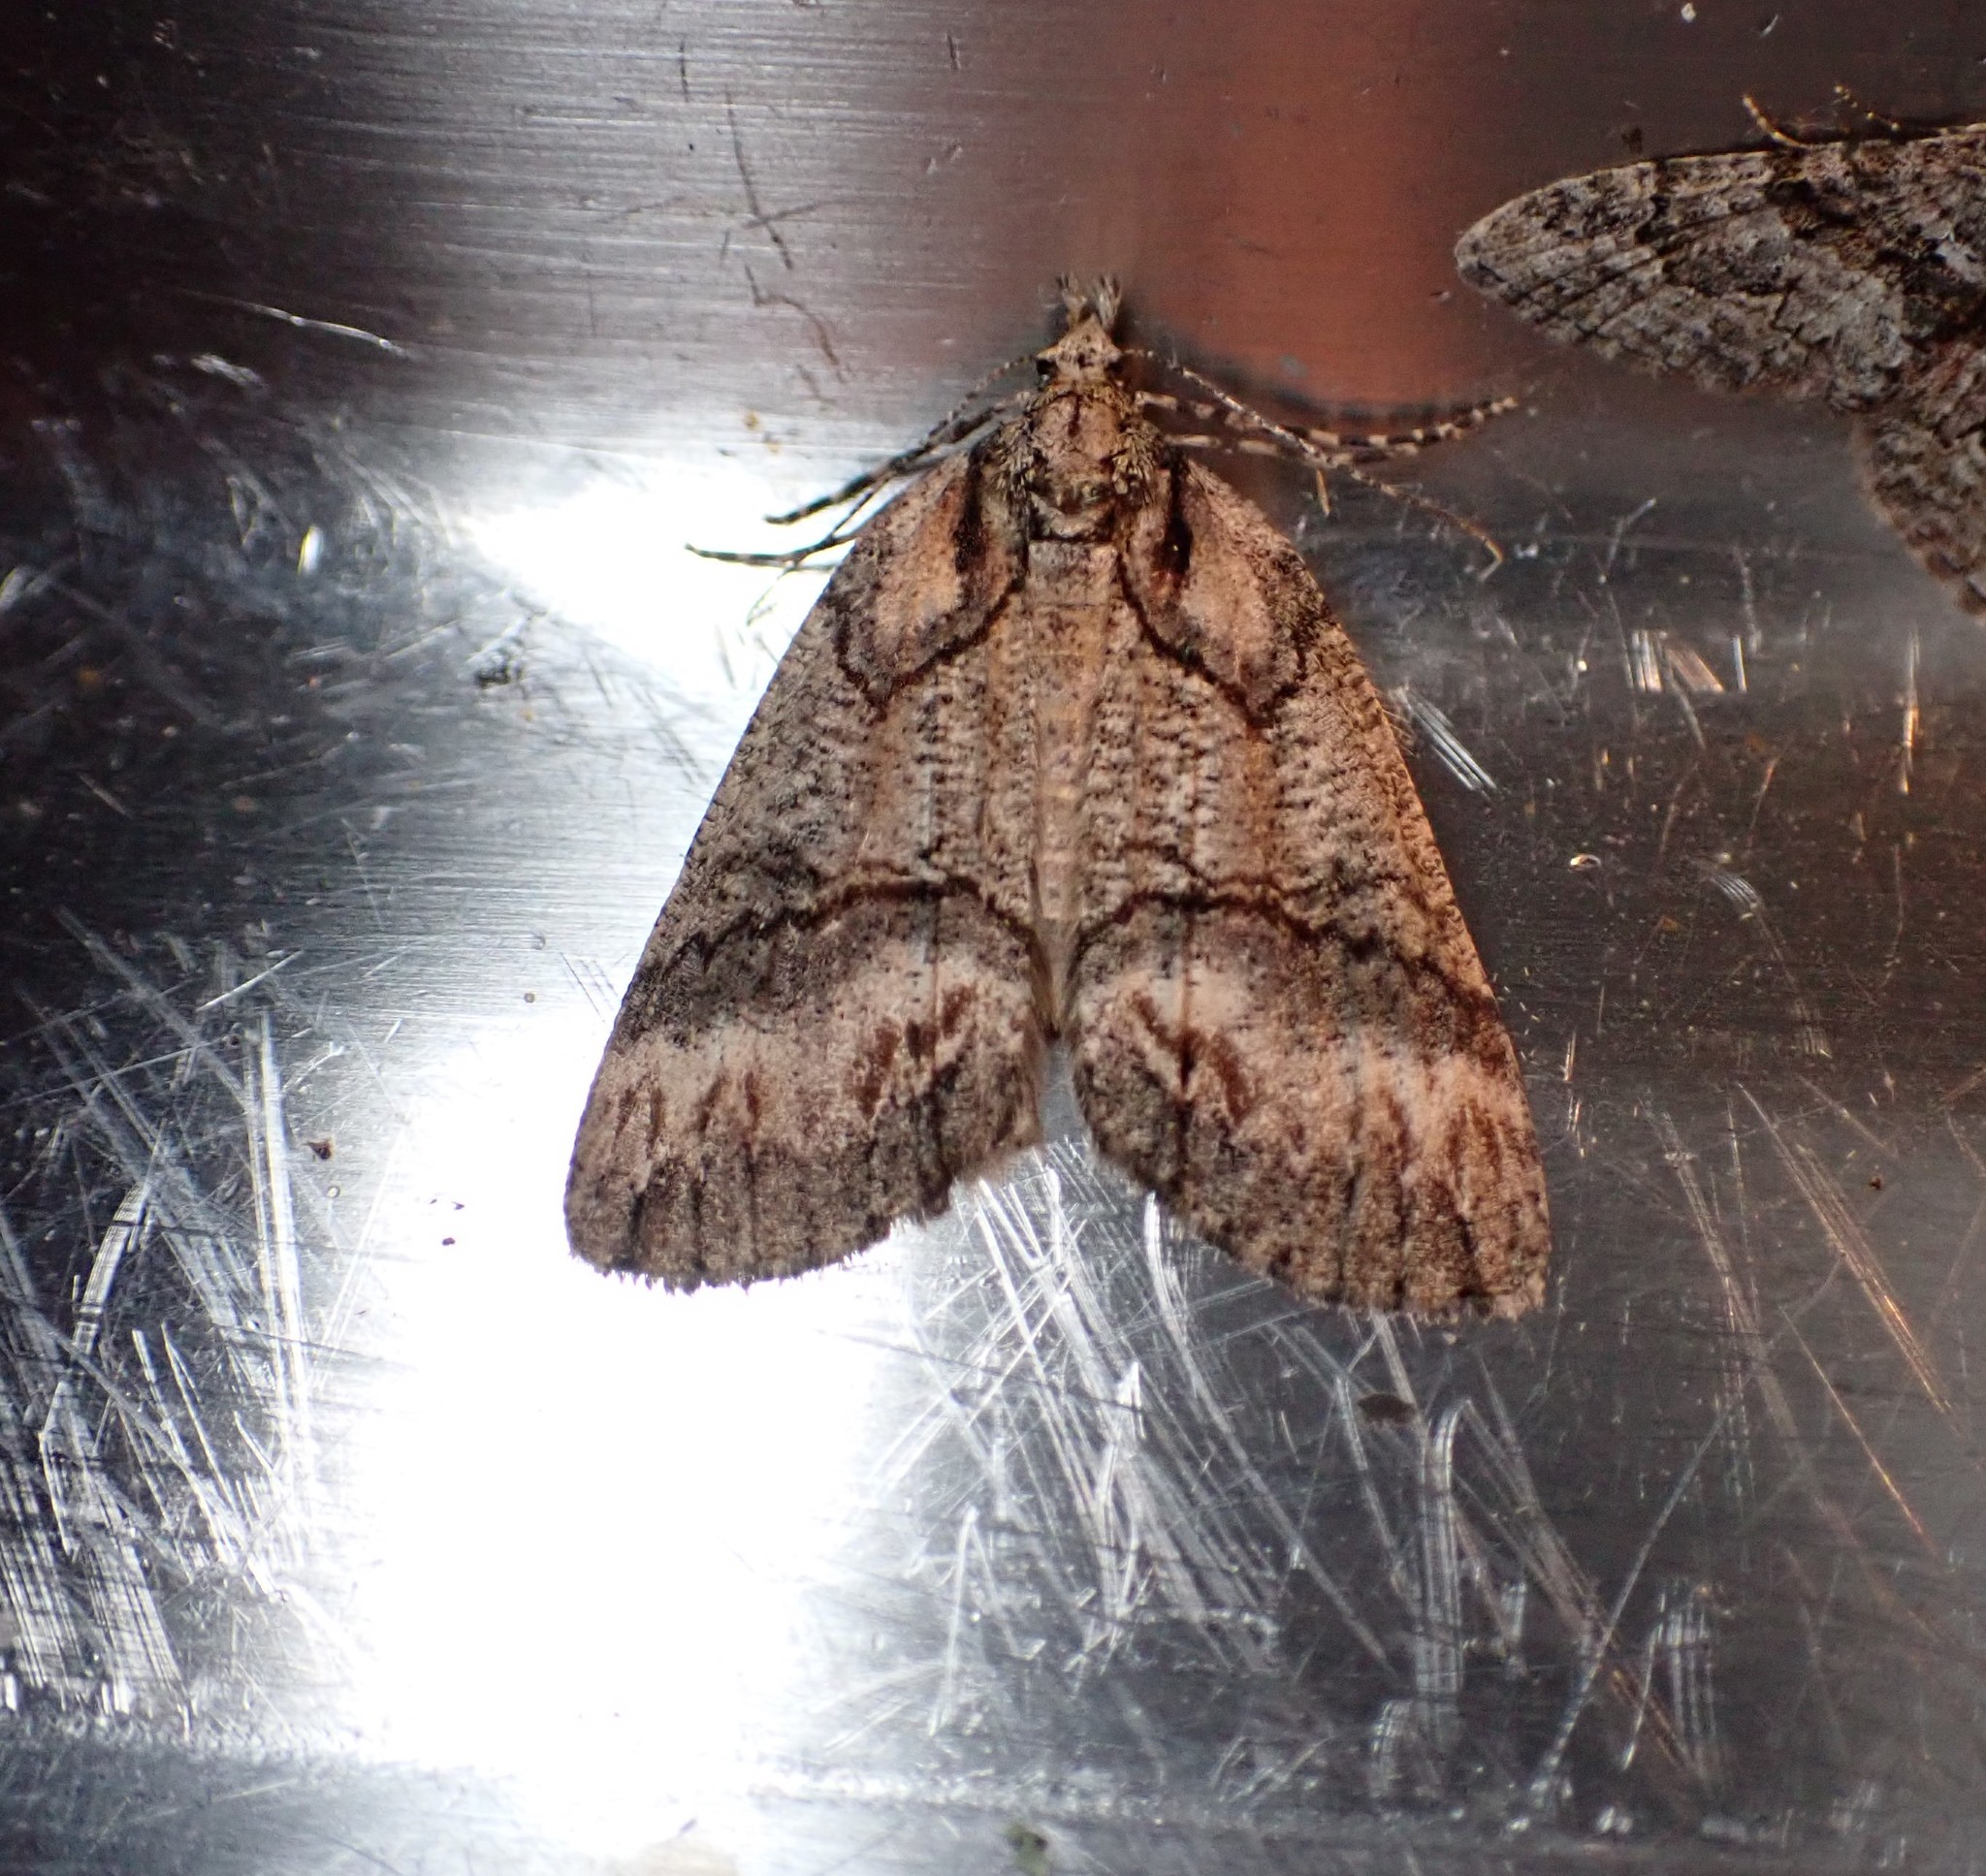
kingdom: Animalia
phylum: Arthropoda
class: Insecta
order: Lepidoptera
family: Geometridae
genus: Chalastra
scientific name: Chalastra ochrea
